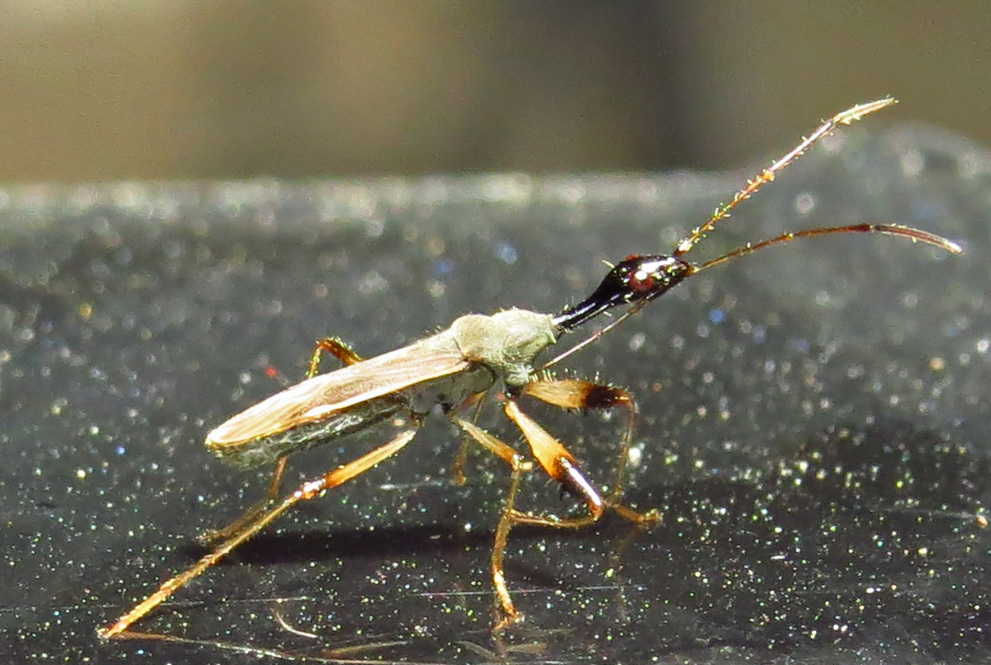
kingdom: Animalia
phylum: Arthropoda
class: Insecta
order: Hemiptera
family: Rhyparochromidae
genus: Myodocha
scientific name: Myodocha serripes
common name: Long-necked seed bug
